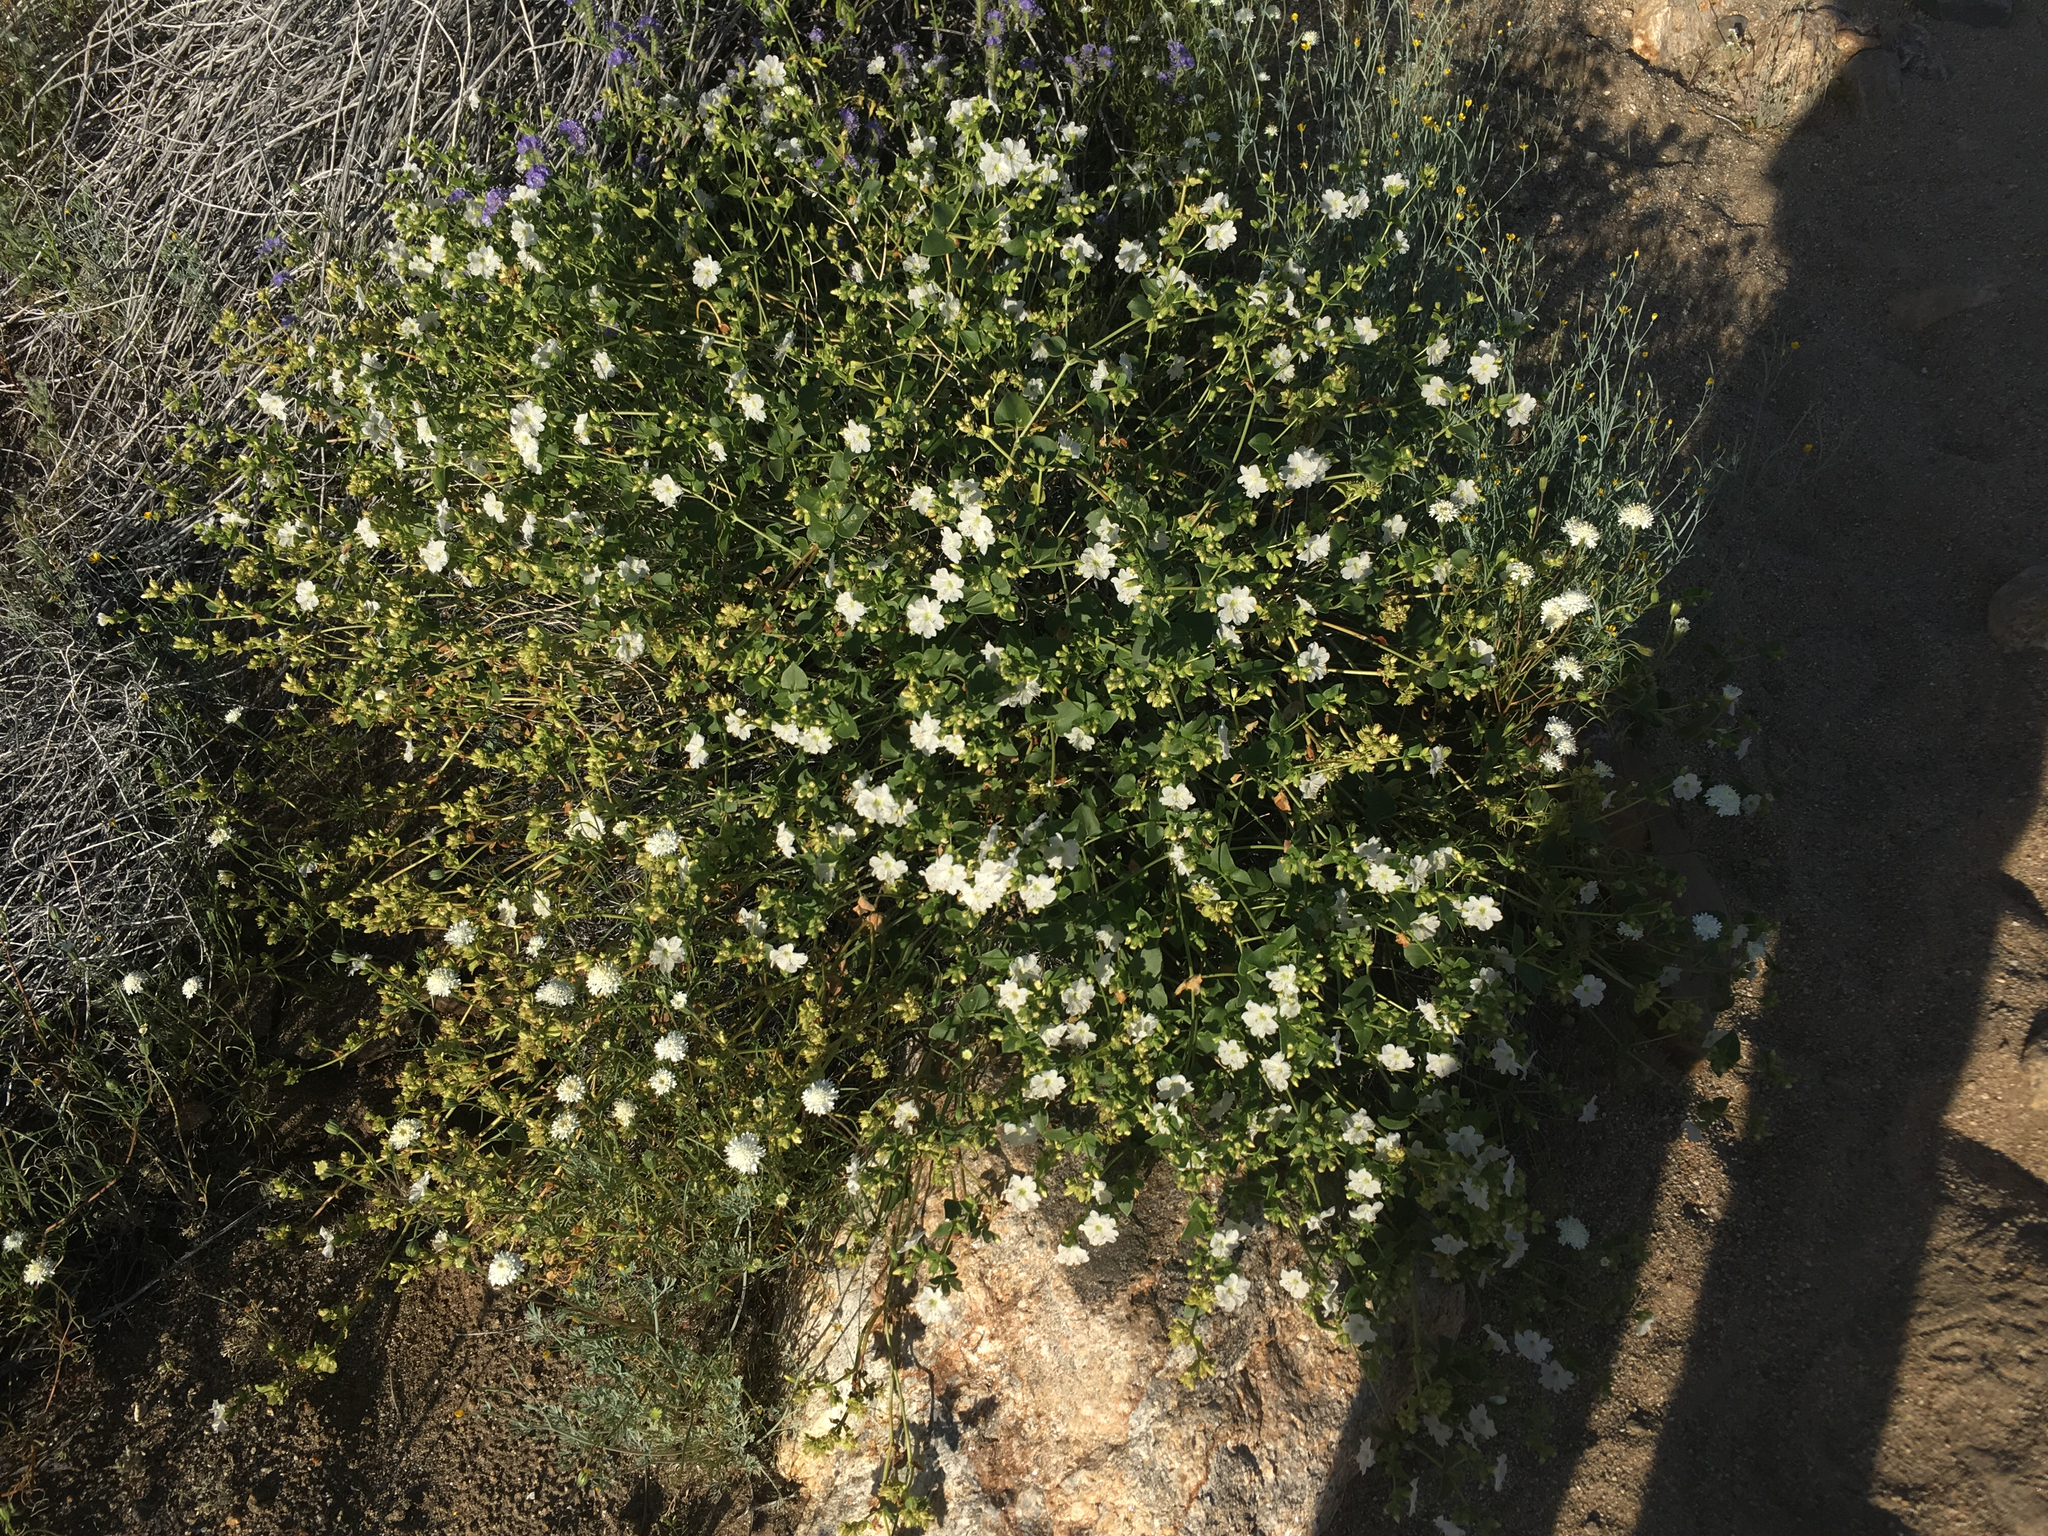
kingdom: Plantae
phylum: Tracheophyta
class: Magnoliopsida
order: Caryophyllales
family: Nyctaginaceae
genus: Mirabilis
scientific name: Mirabilis laevis
